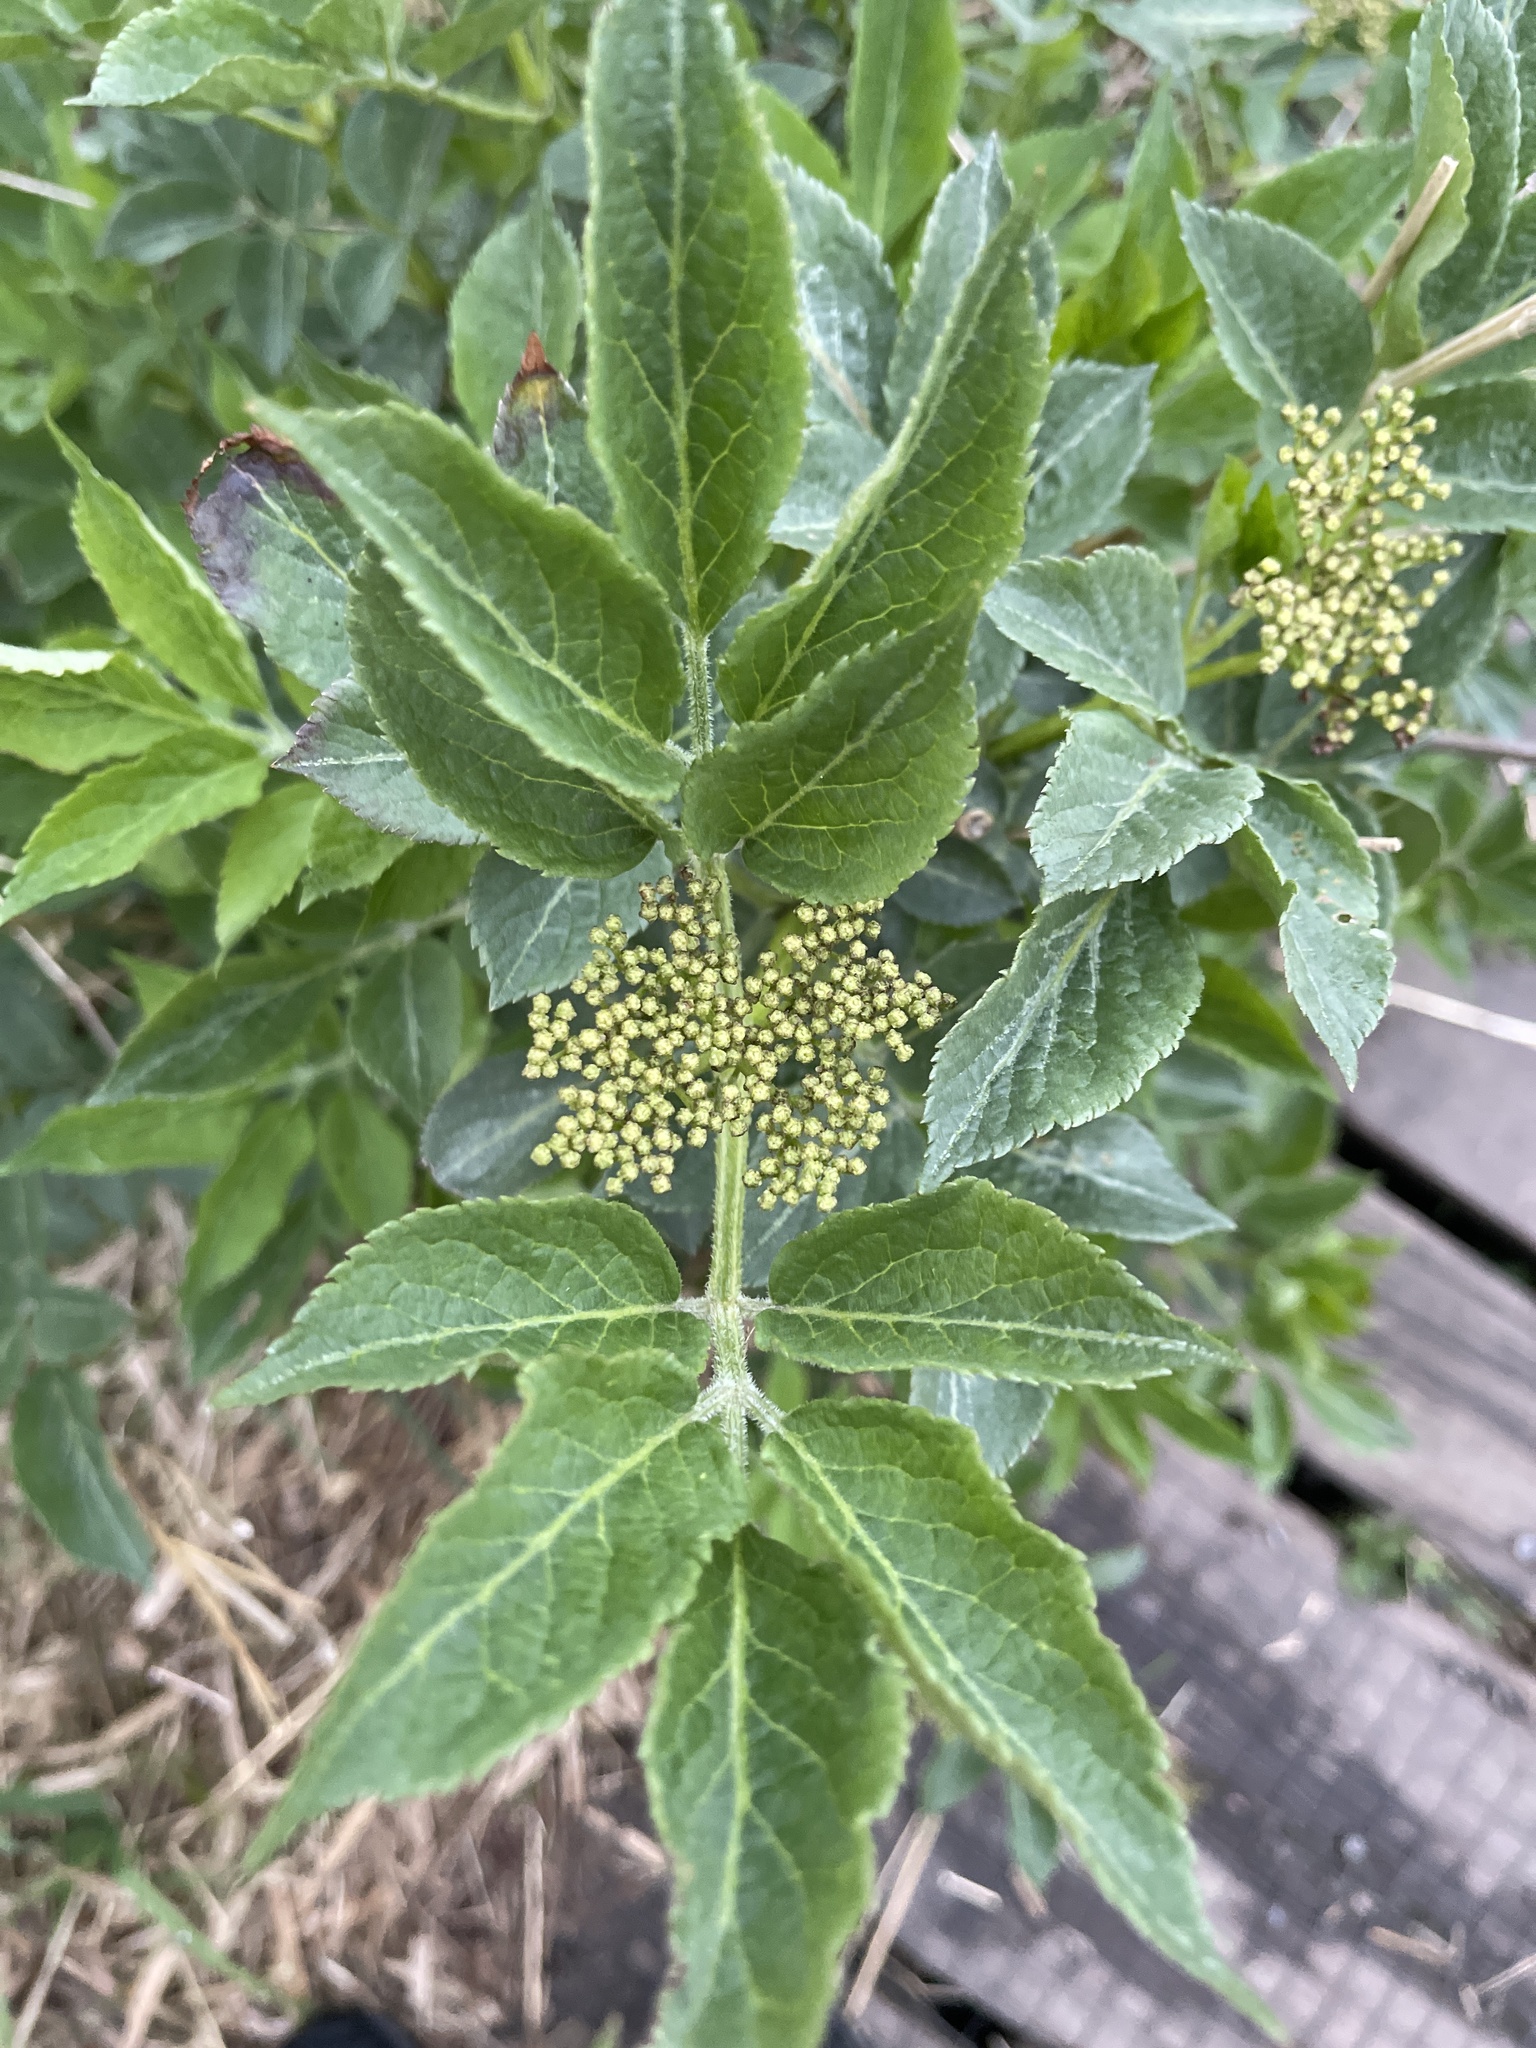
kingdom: Plantae
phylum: Tracheophyta
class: Magnoliopsida
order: Dipsacales
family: Viburnaceae
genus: Sambucus
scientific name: Sambucus nigra
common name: Elder
